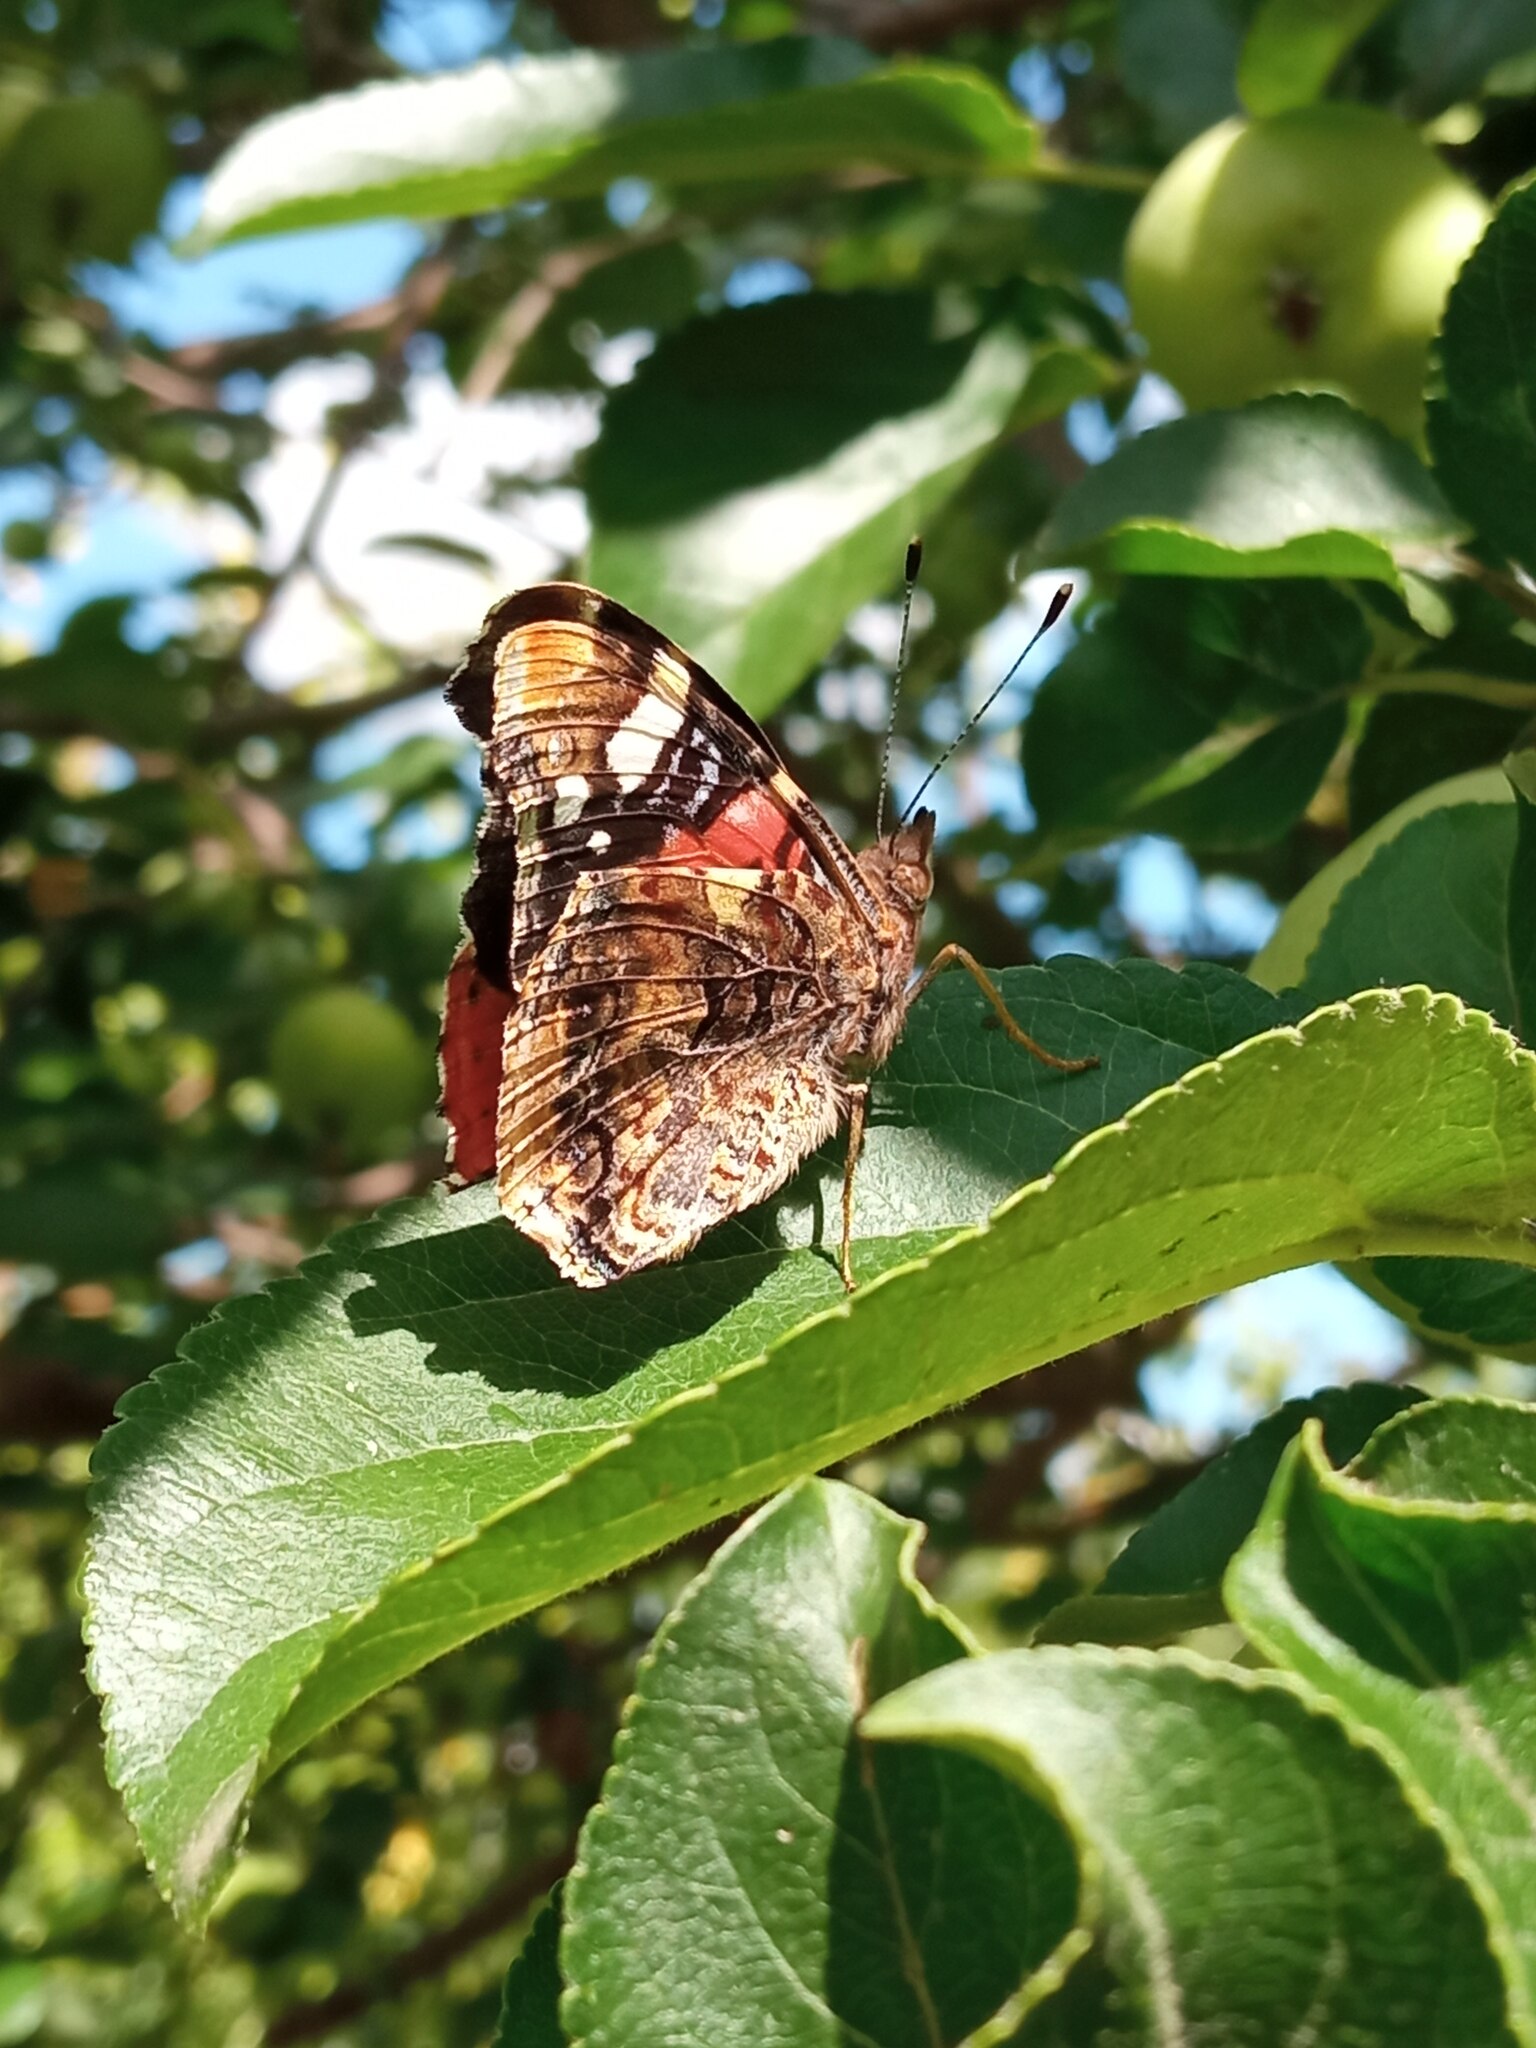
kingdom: Animalia
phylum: Arthropoda
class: Insecta
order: Lepidoptera
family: Nymphalidae
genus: Vanessa
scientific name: Vanessa atalanta
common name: Red admiral
